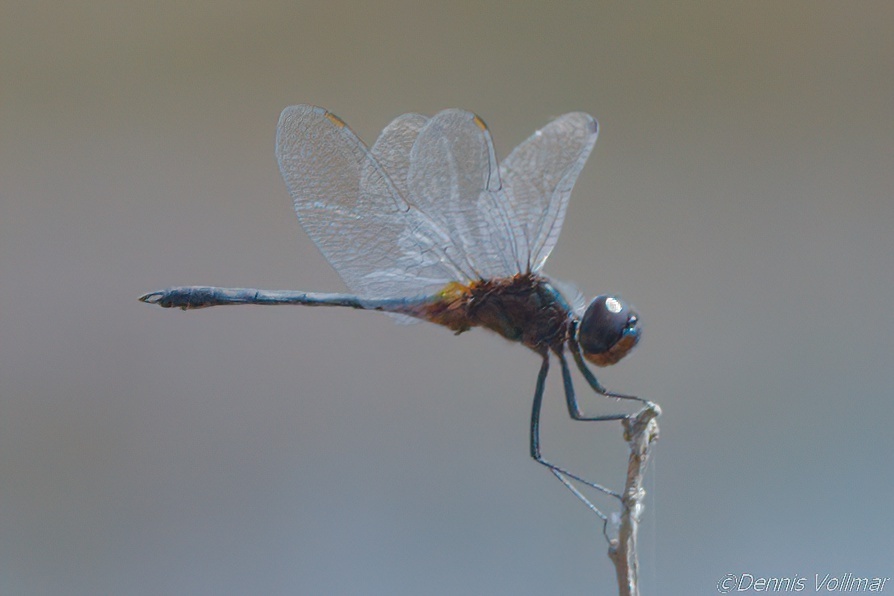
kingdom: Animalia
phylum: Arthropoda
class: Insecta
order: Odonata
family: Libellulidae
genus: Idiataphe
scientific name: Idiataphe cubensis
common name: Metallic pennant
